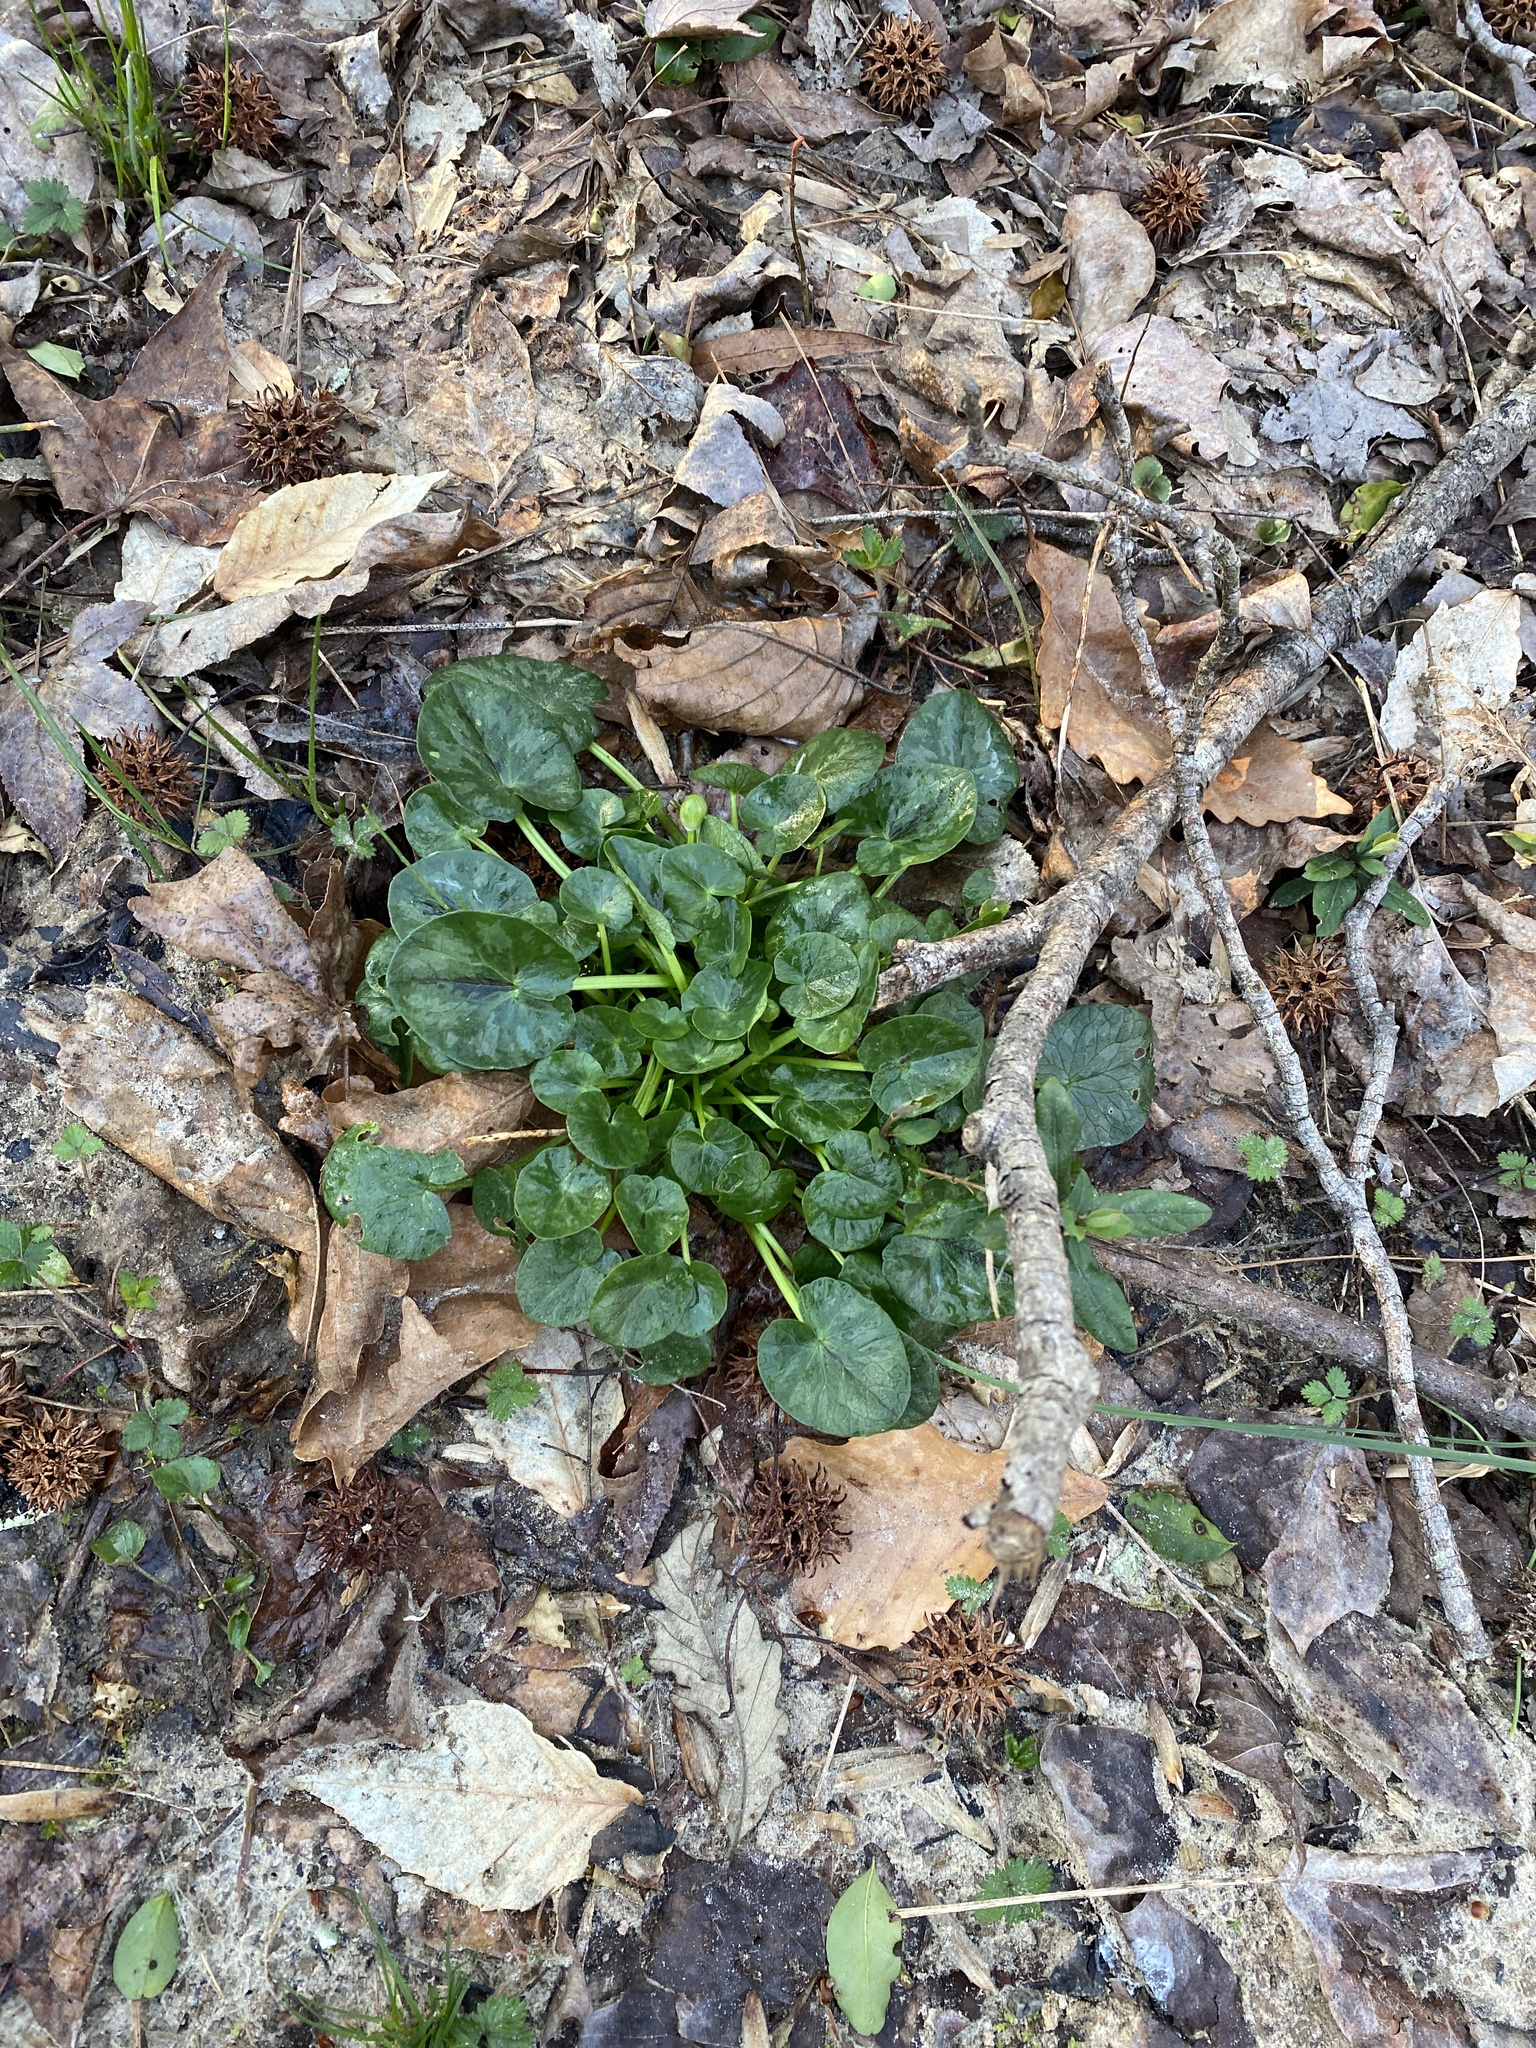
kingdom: Plantae
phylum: Tracheophyta
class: Magnoliopsida
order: Ranunculales
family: Ranunculaceae
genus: Ficaria
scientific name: Ficaria verna
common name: Lesser celandine
